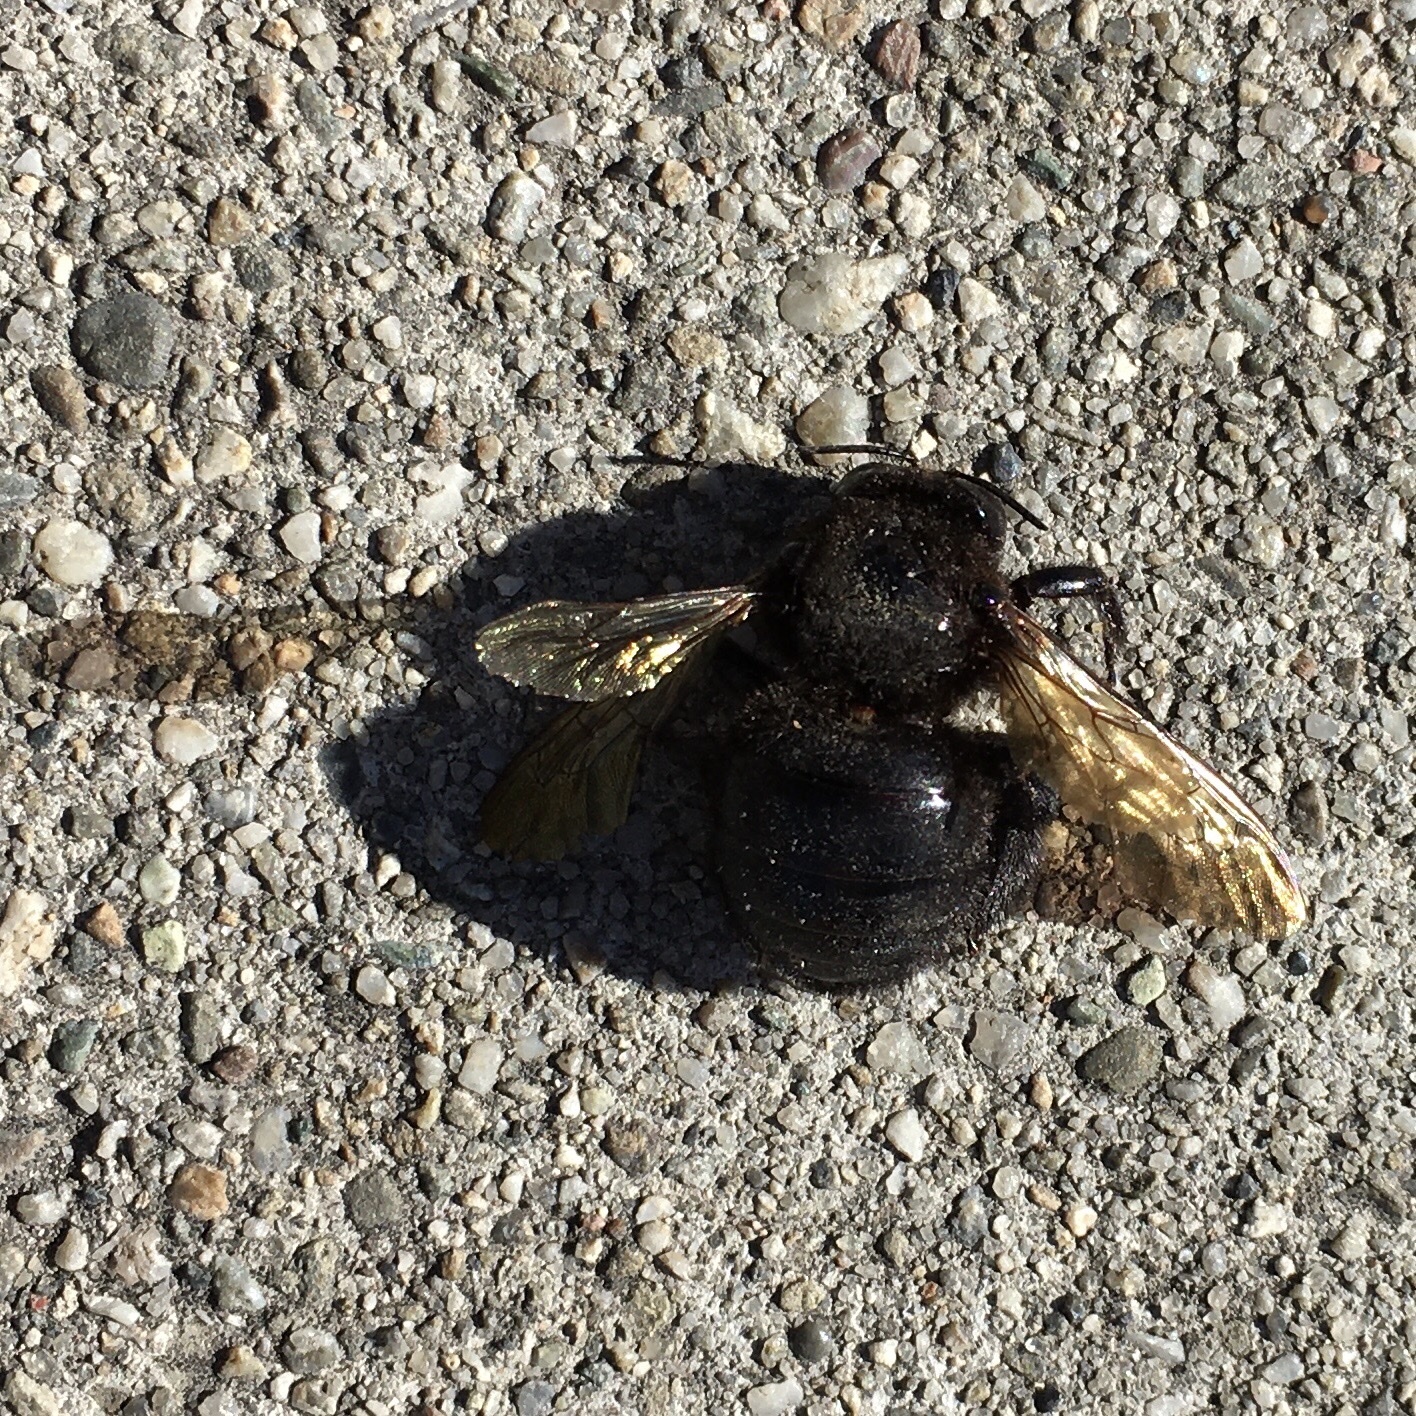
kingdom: Animalia
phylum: Arthropoda
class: Insecta
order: Hymenoptera
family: Apidae
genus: Xylocopa
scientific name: Xylocopa sonorina
